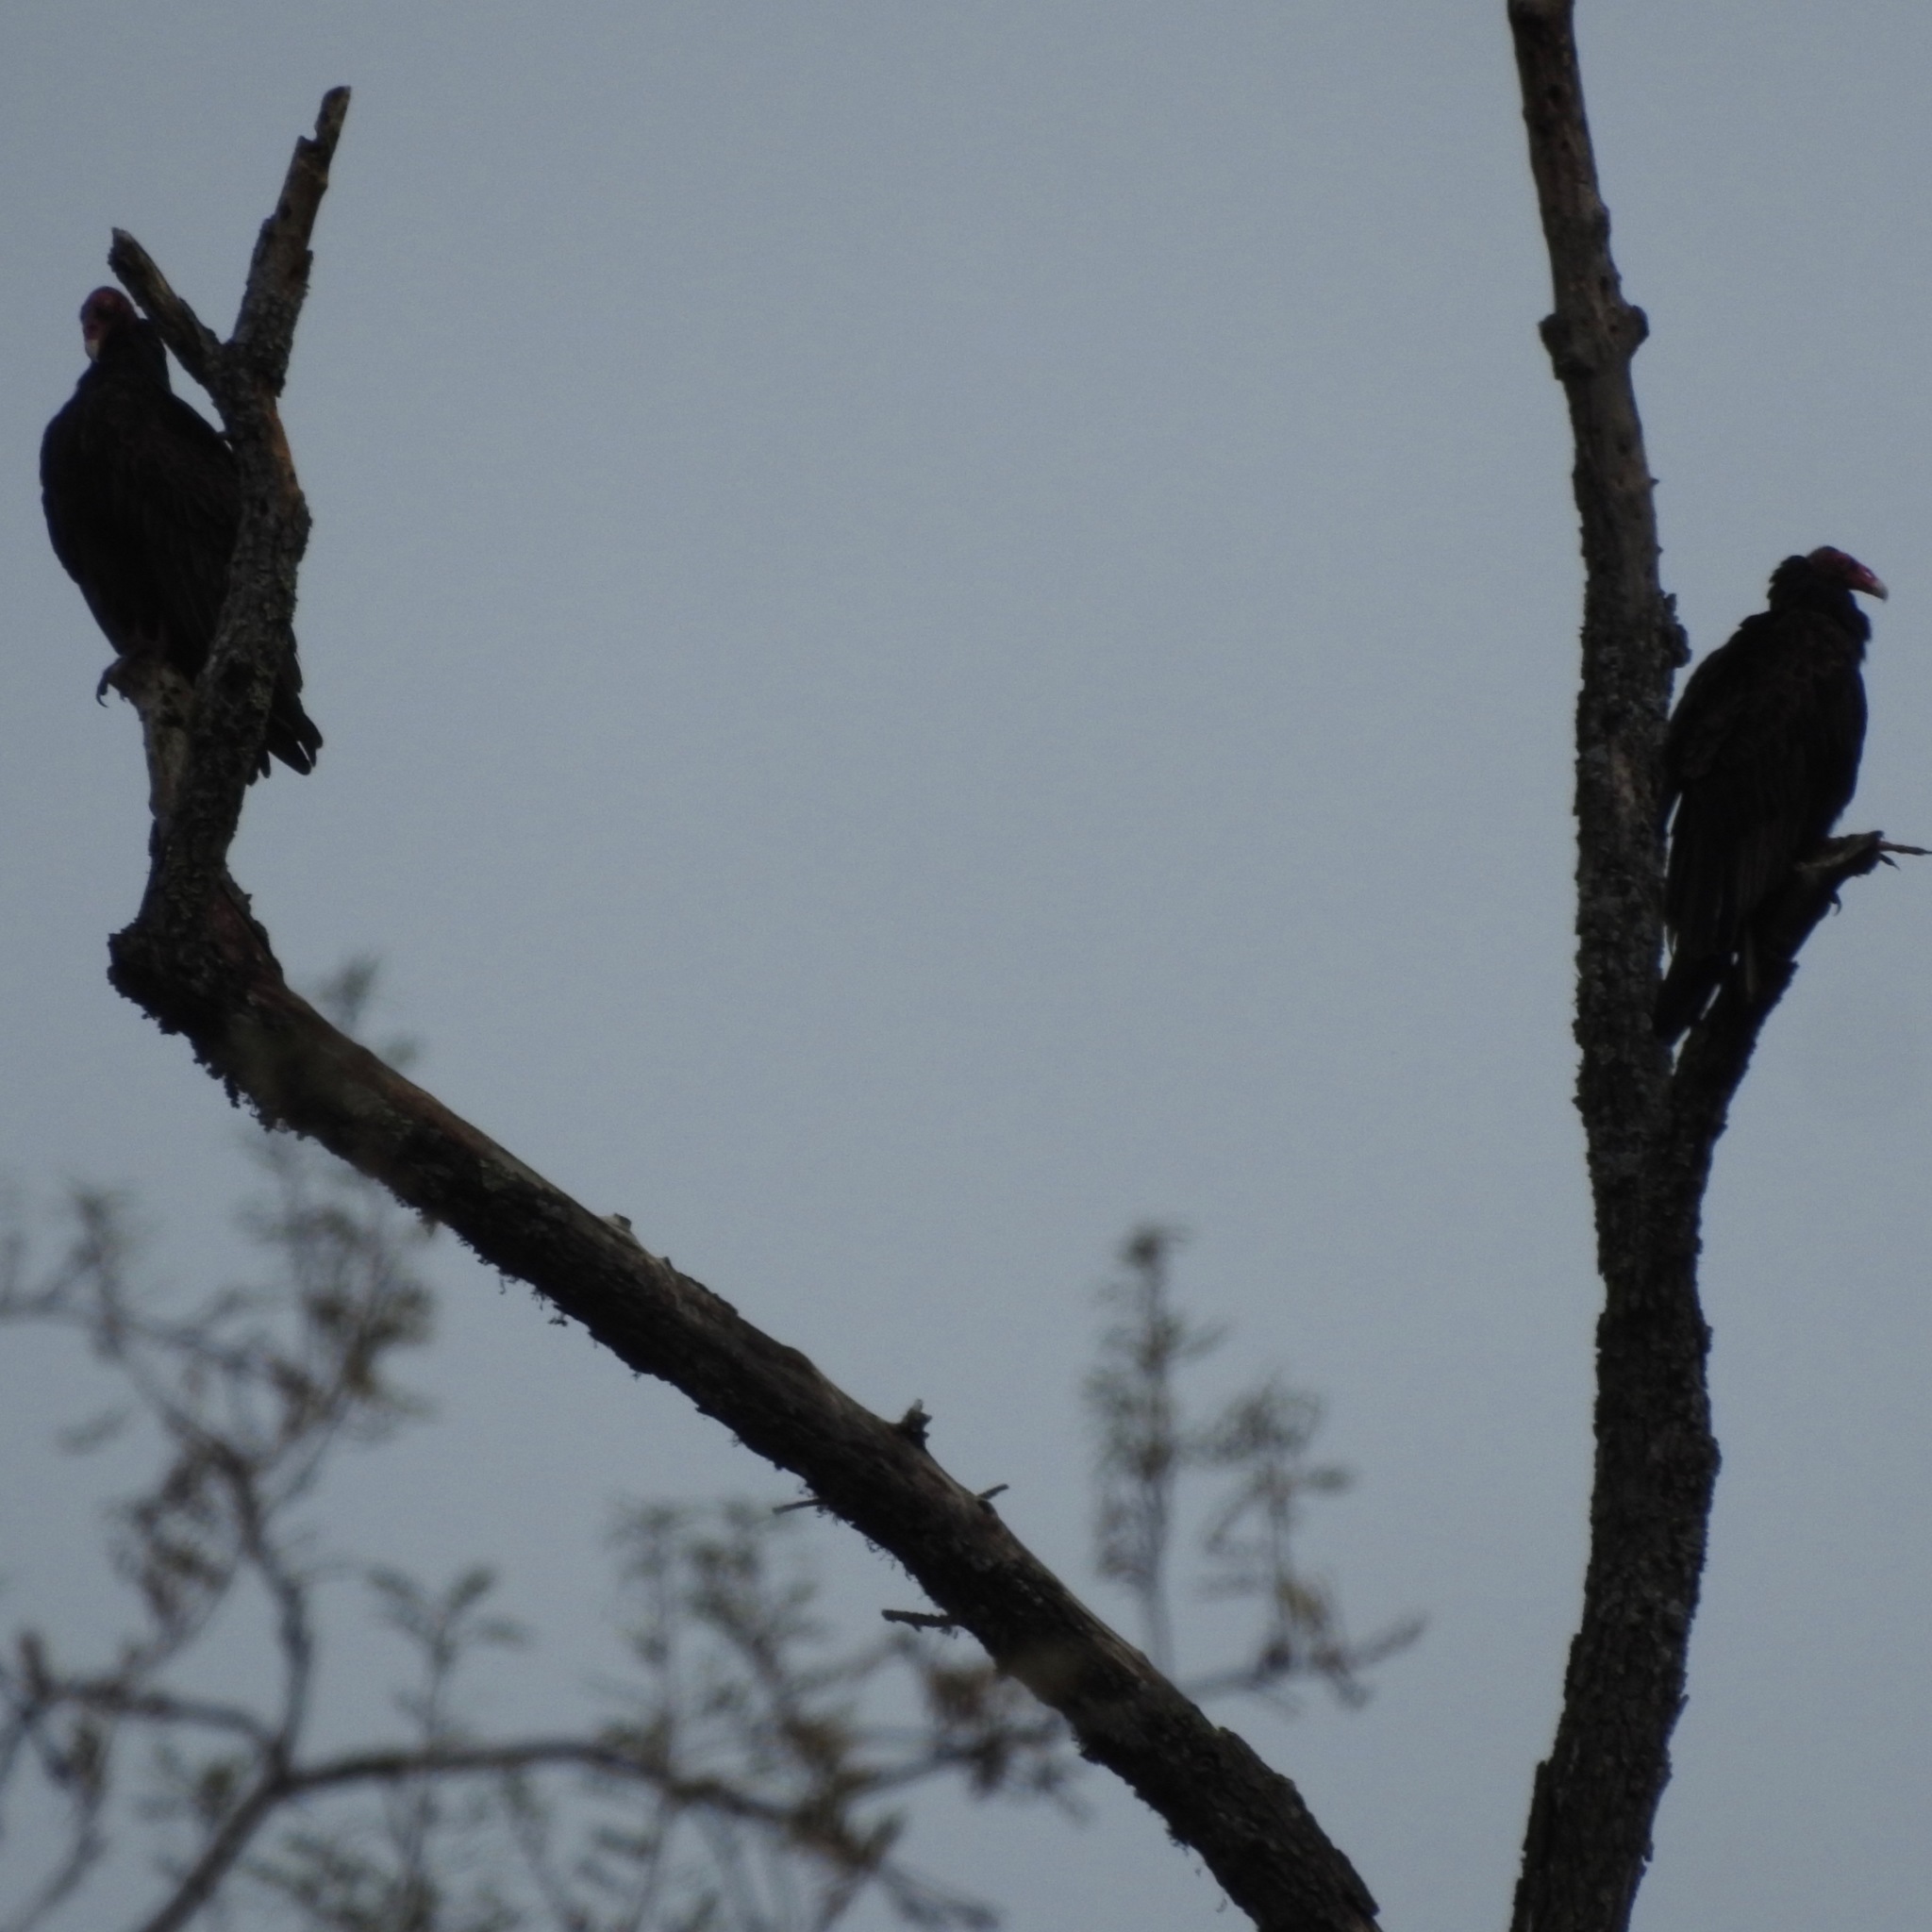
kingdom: Animalia
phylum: Chordata
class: Aves
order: Accipitriformes
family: Cathartidae
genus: Cathartes
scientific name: Cathartes aura
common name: Turkey vulture
